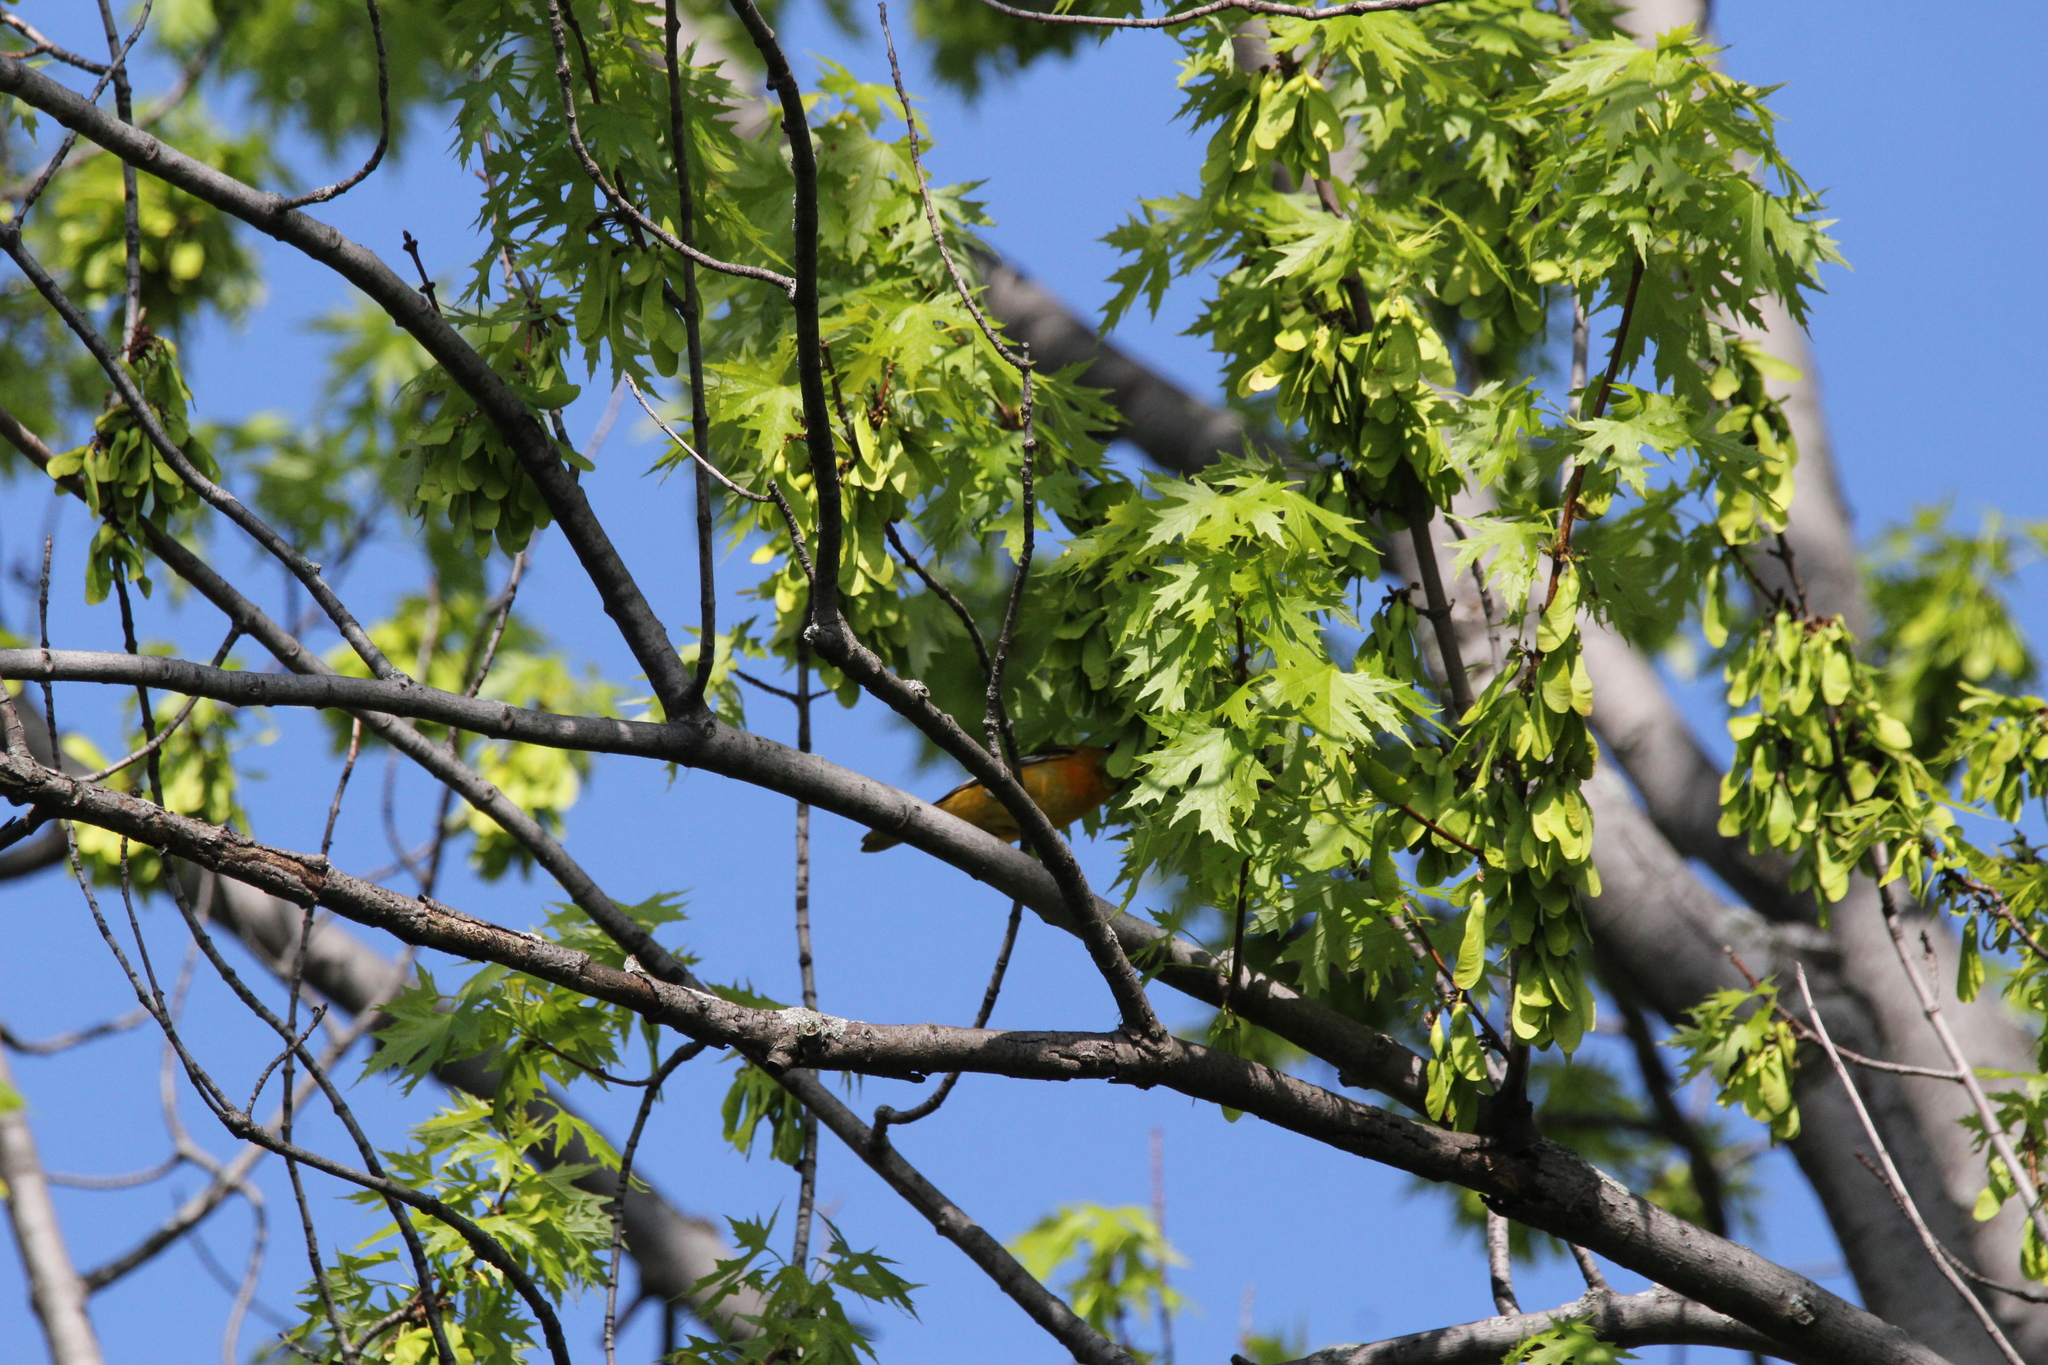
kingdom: Animalia
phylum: Chordata
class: Aves
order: Passeriformes
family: Icteridae
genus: Icterus
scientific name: Icterus galbula
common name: Baltimore oriole
